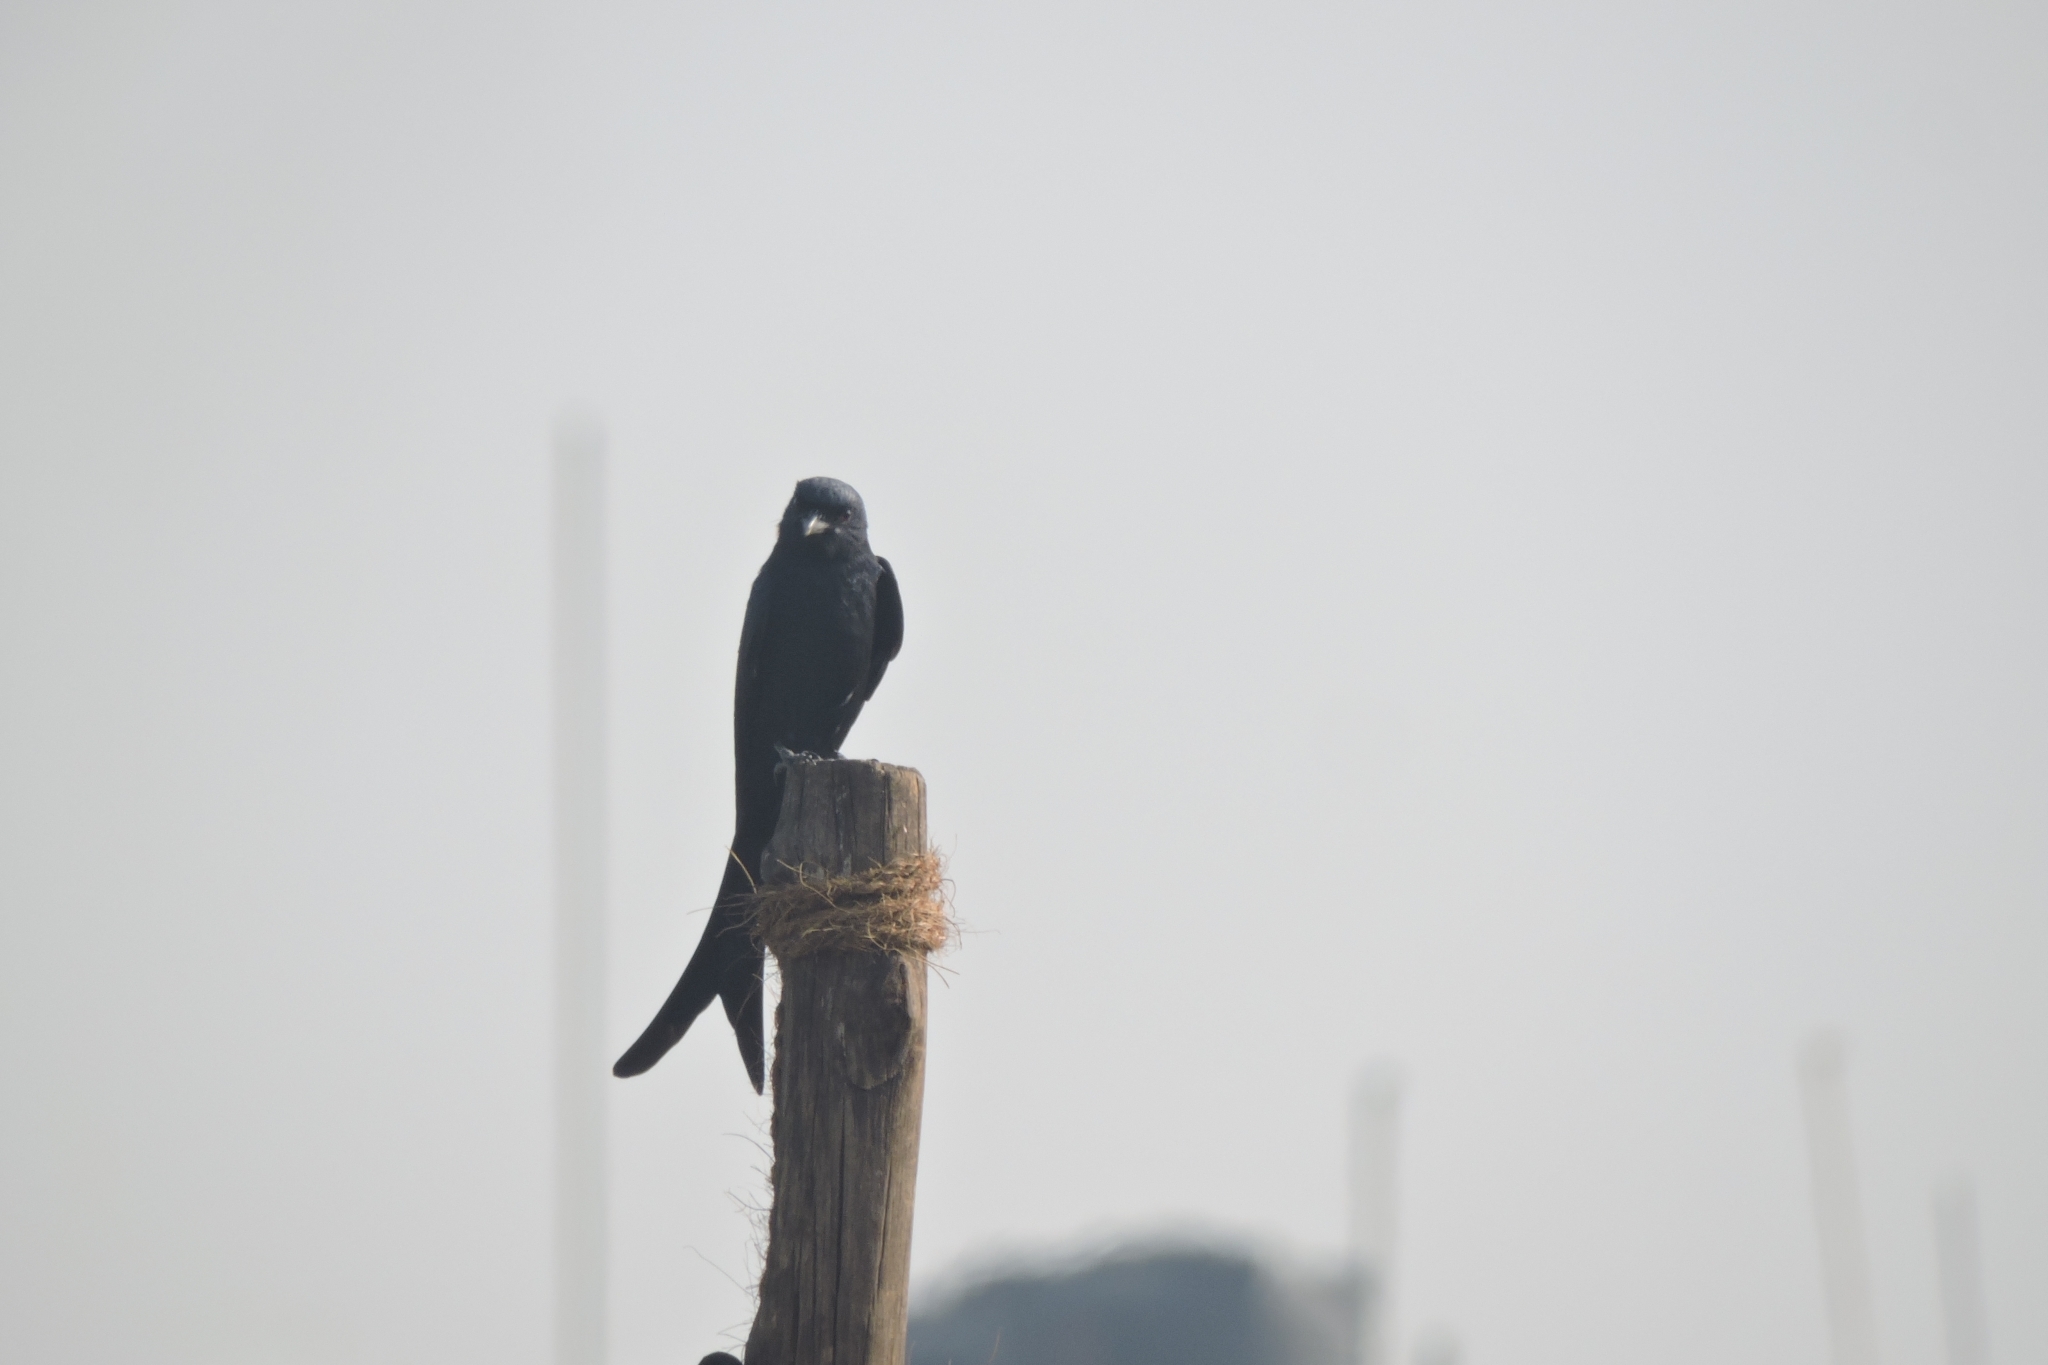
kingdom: Animalia
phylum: Chordata
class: Aves
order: Passeriformes
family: Dicruridae
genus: Dicrurus
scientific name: Dicrurus macrocercus
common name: Black drongo
